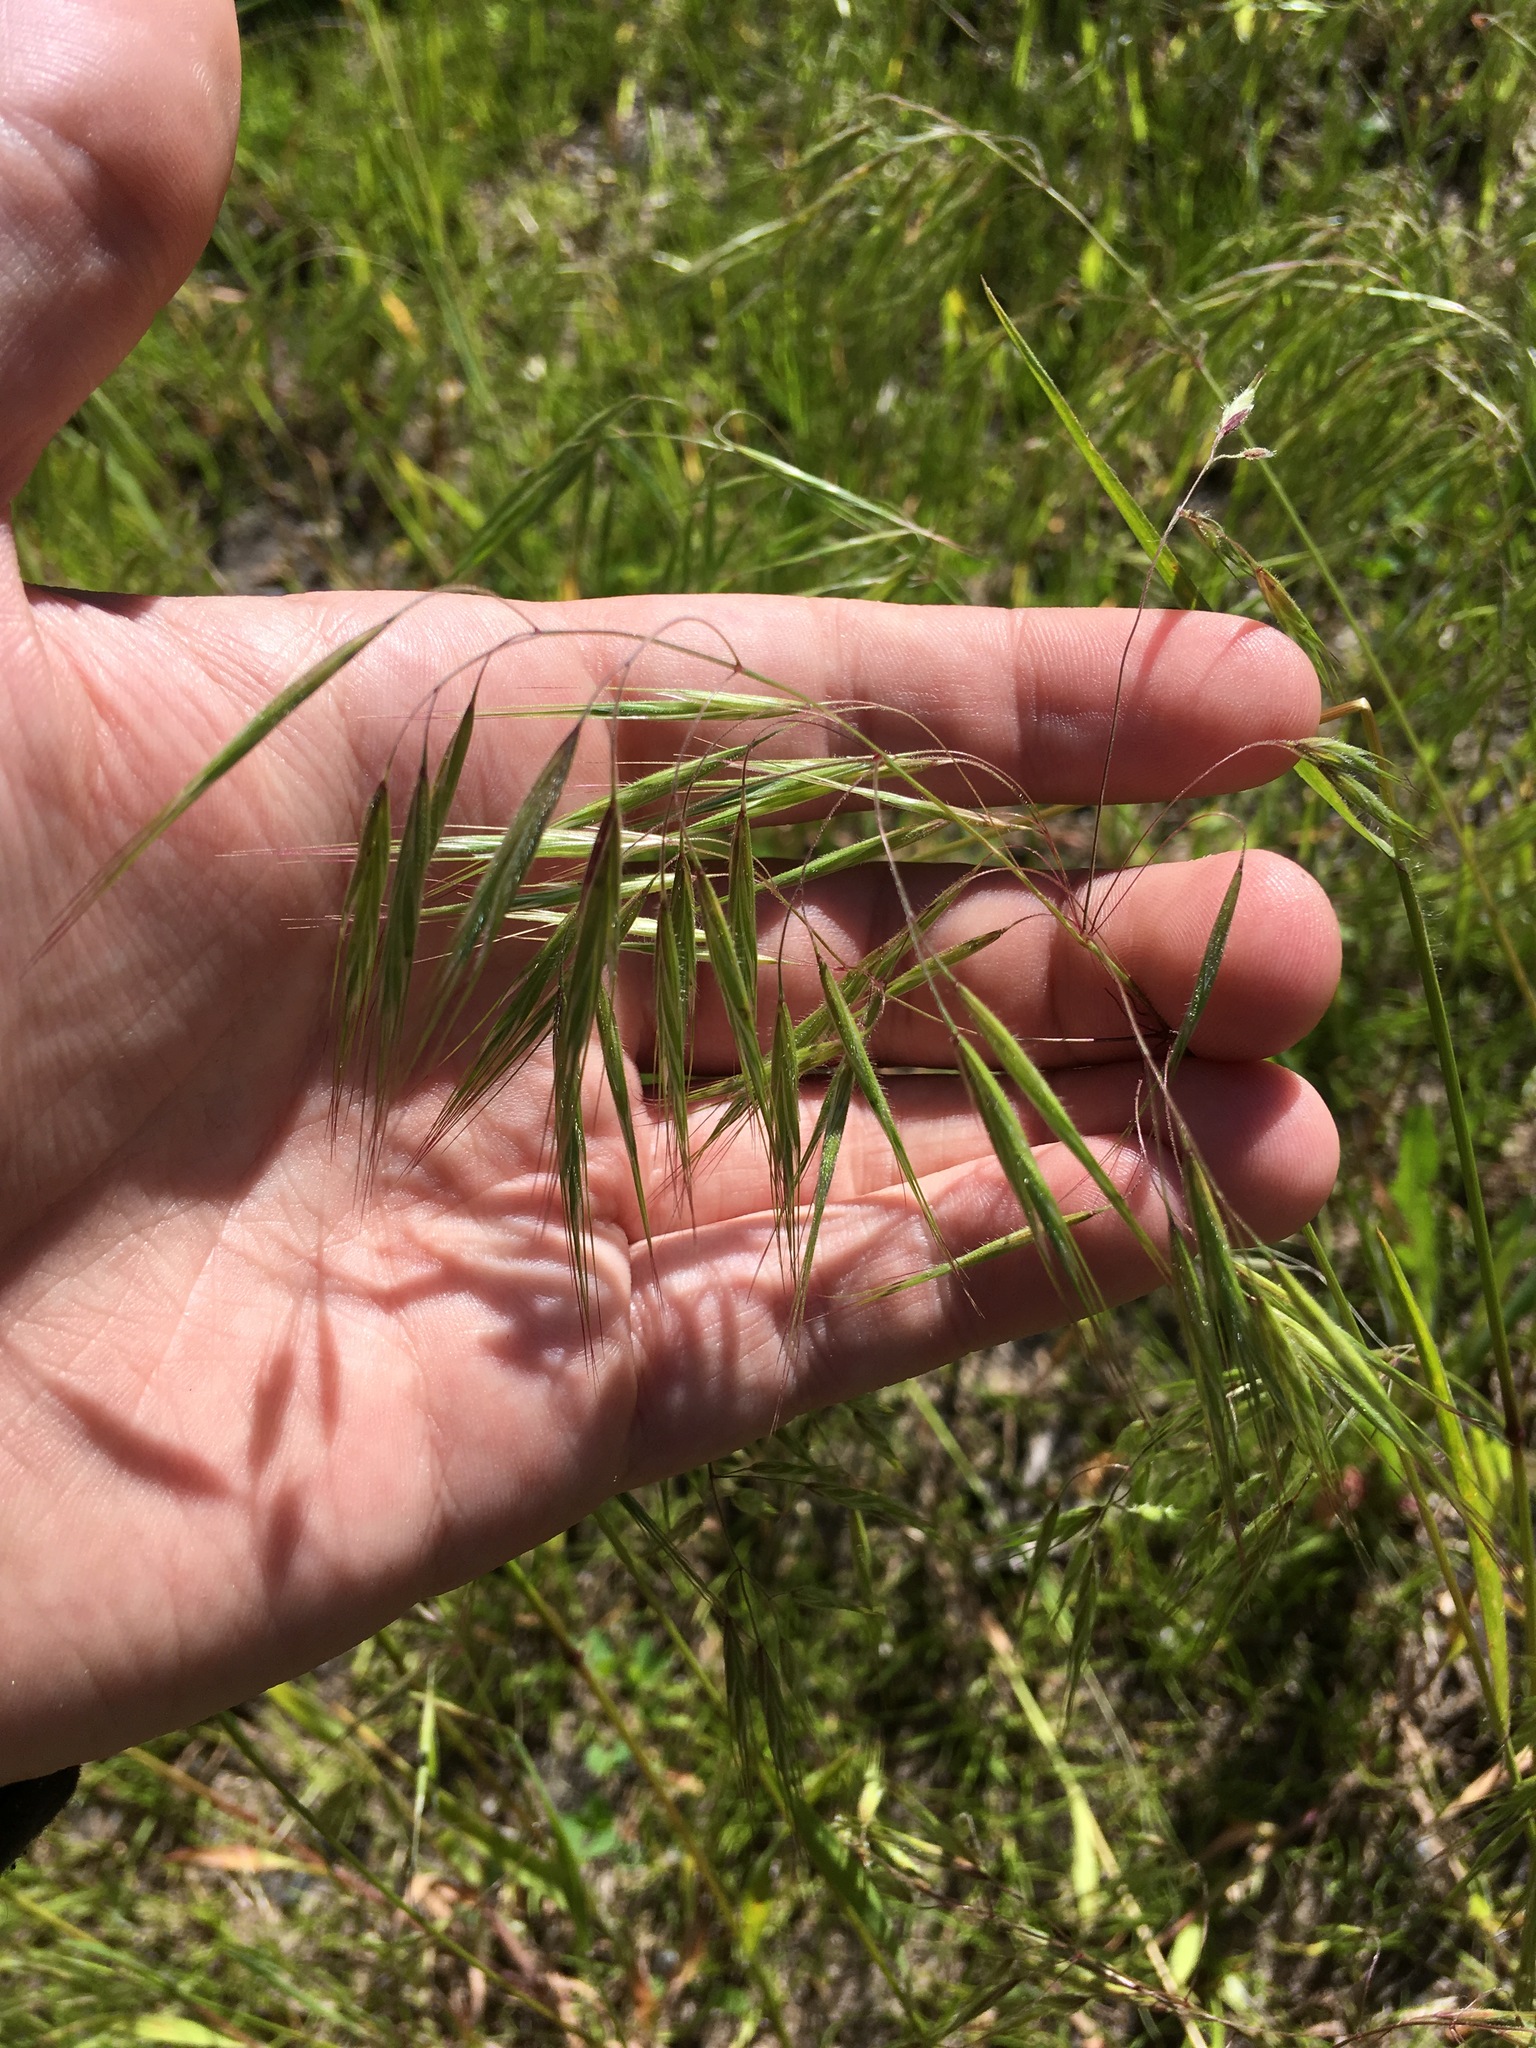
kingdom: Plantae
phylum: Tracheophyta
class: Liliopsida
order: Poales
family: Poaceae
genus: Bromus
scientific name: Bromus tectorum
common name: Cheatgrass
